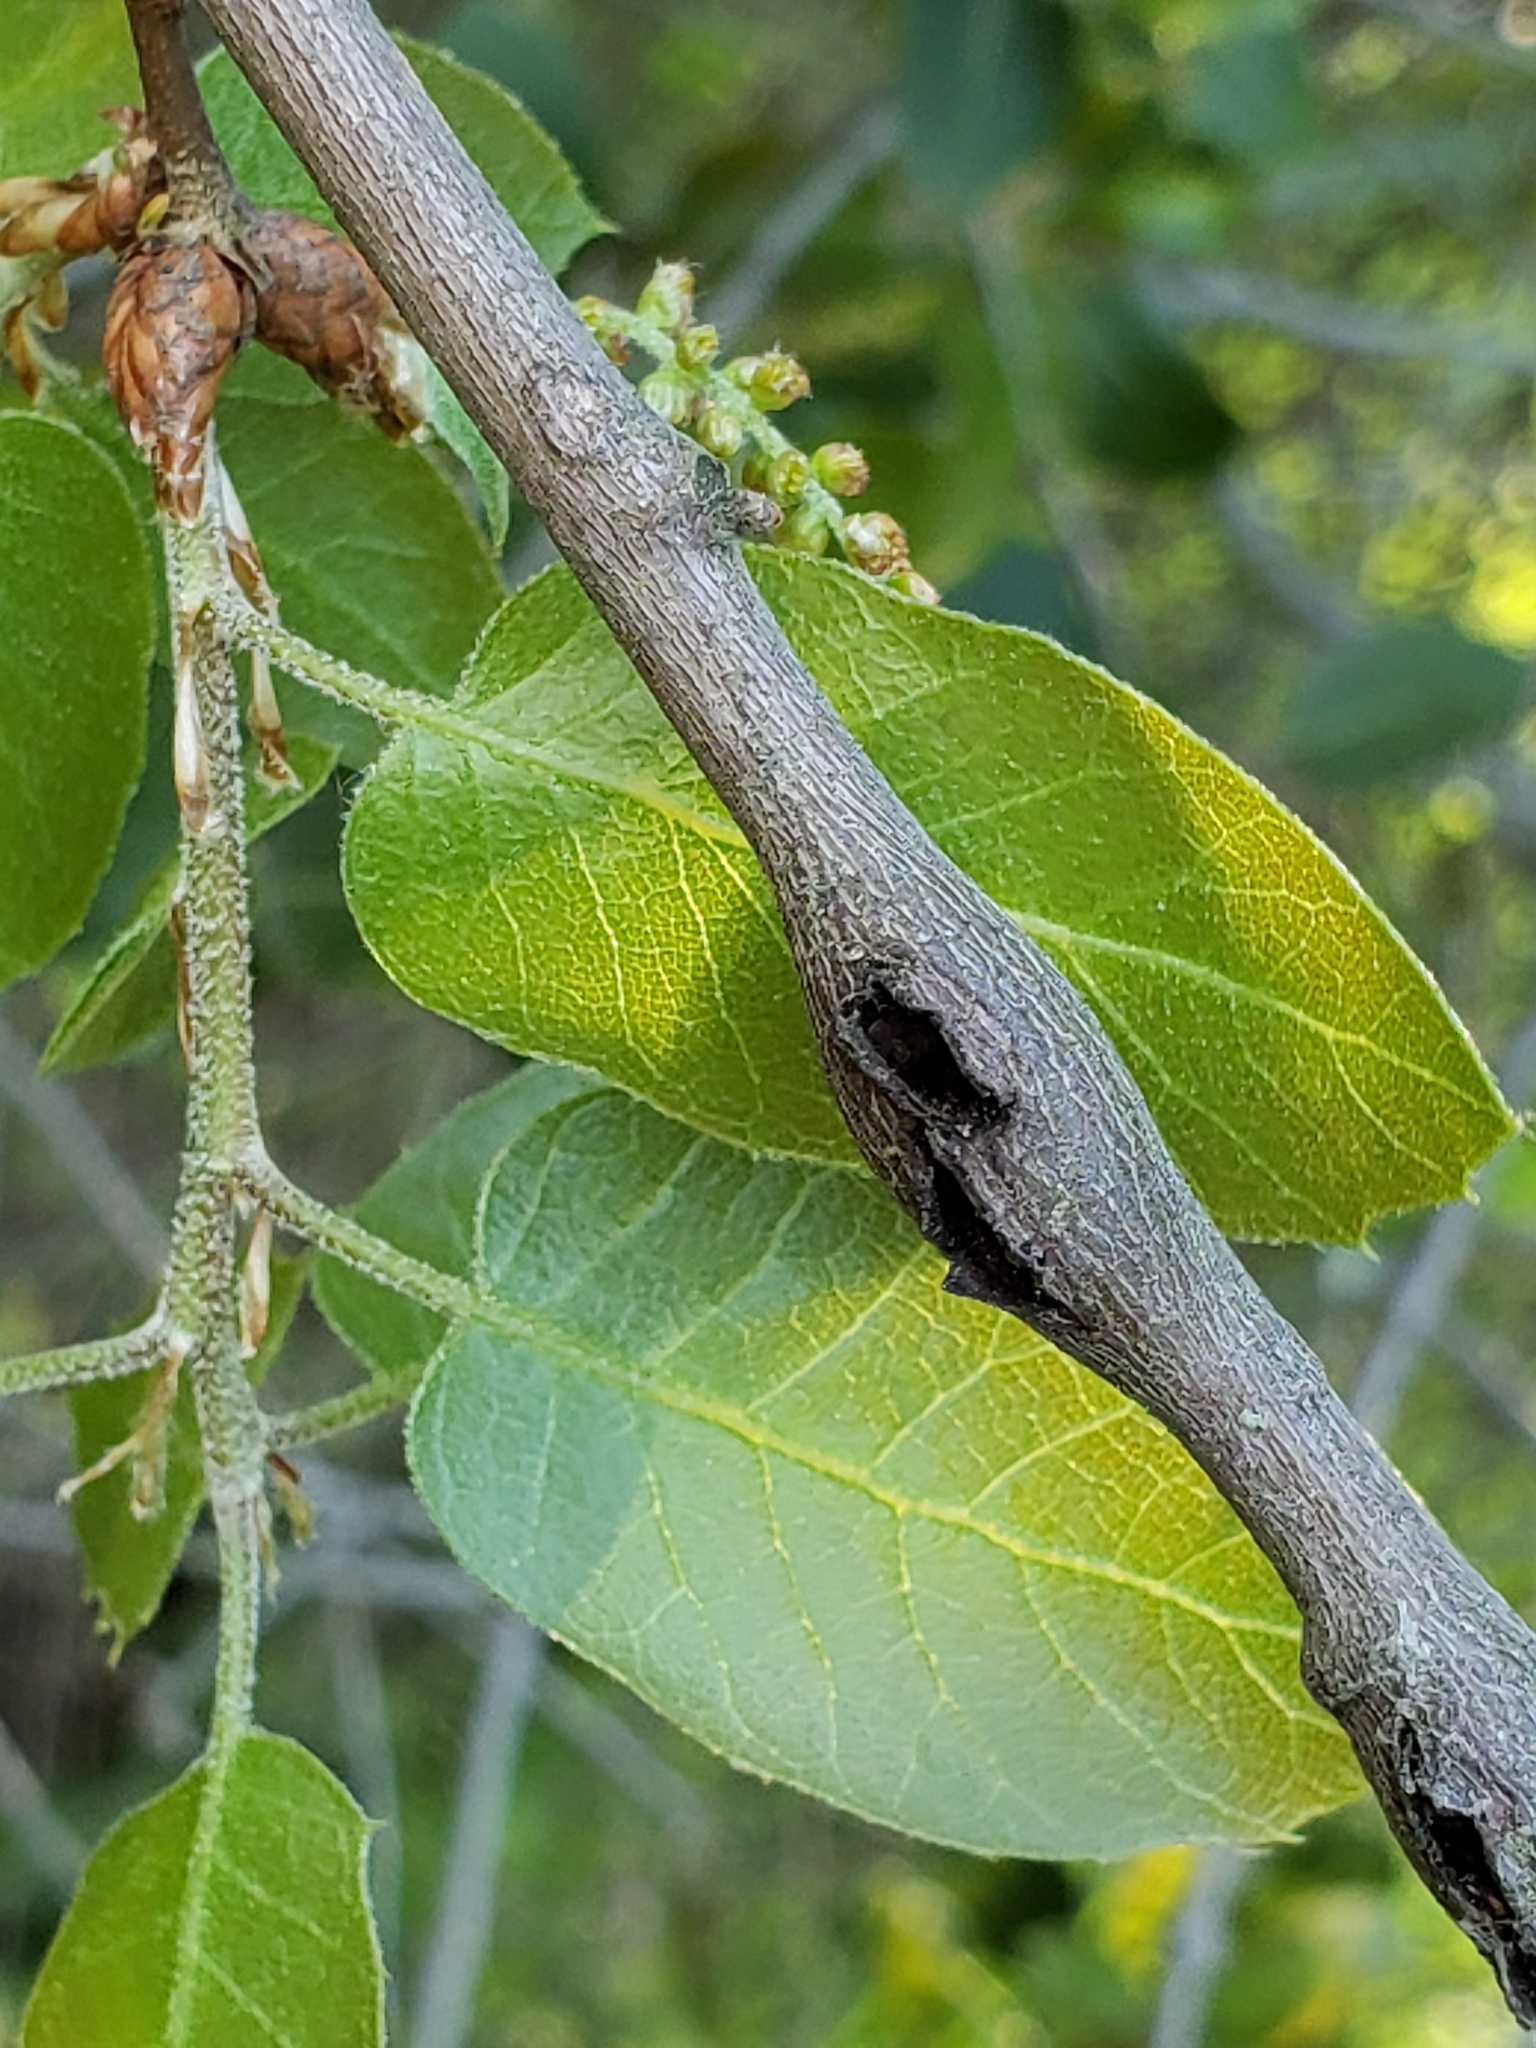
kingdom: Animalia
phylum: Arthropoda
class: Insecta
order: Hymenoptera
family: Cynipidae
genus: Callirhytis
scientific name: Callirhytis
